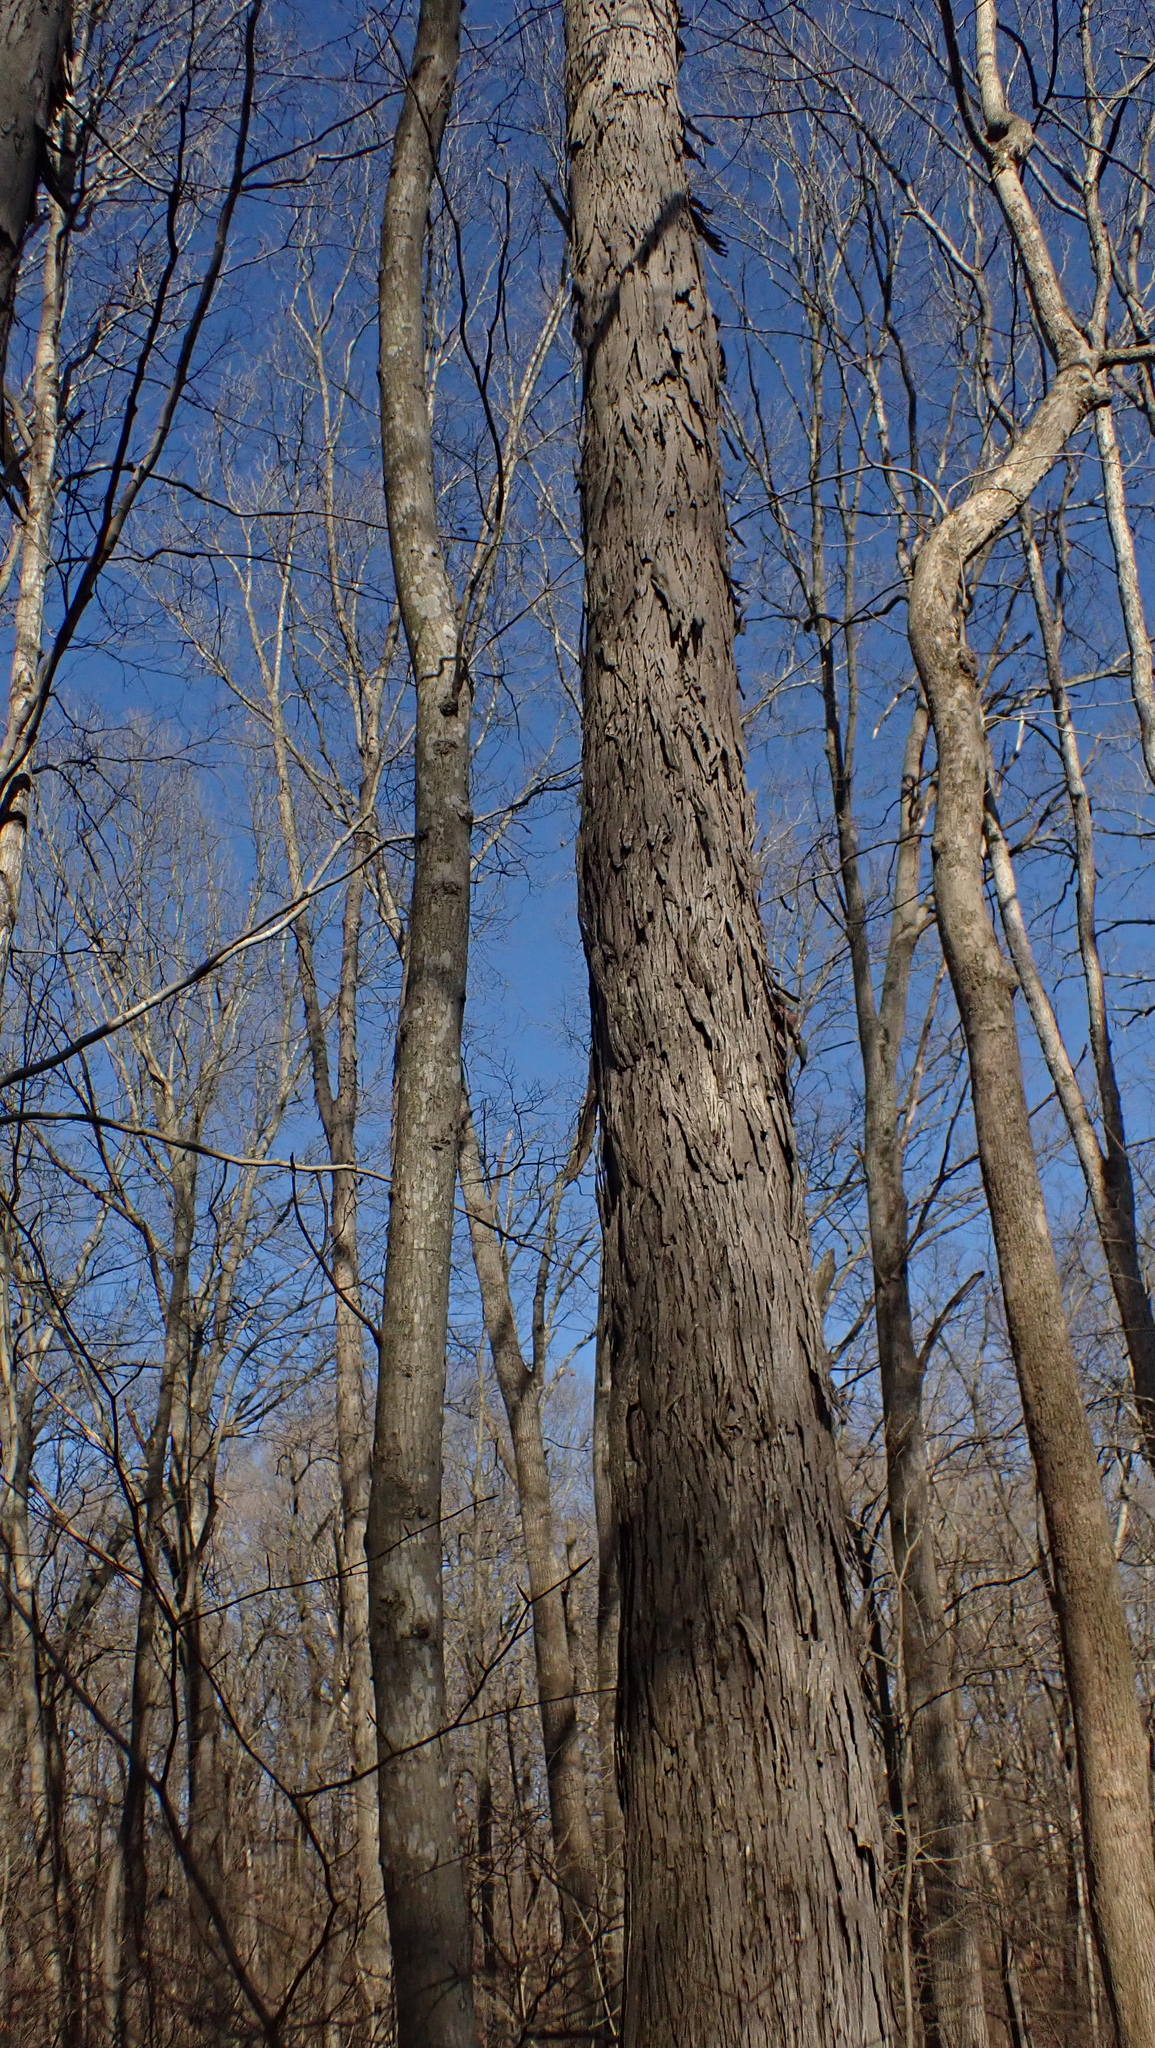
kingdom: Plantae
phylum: Tracheophyta
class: Magnoliopsida
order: Fagales
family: Juglandaceae
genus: Carya
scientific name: Carya ovata
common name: Shagbark hickory
